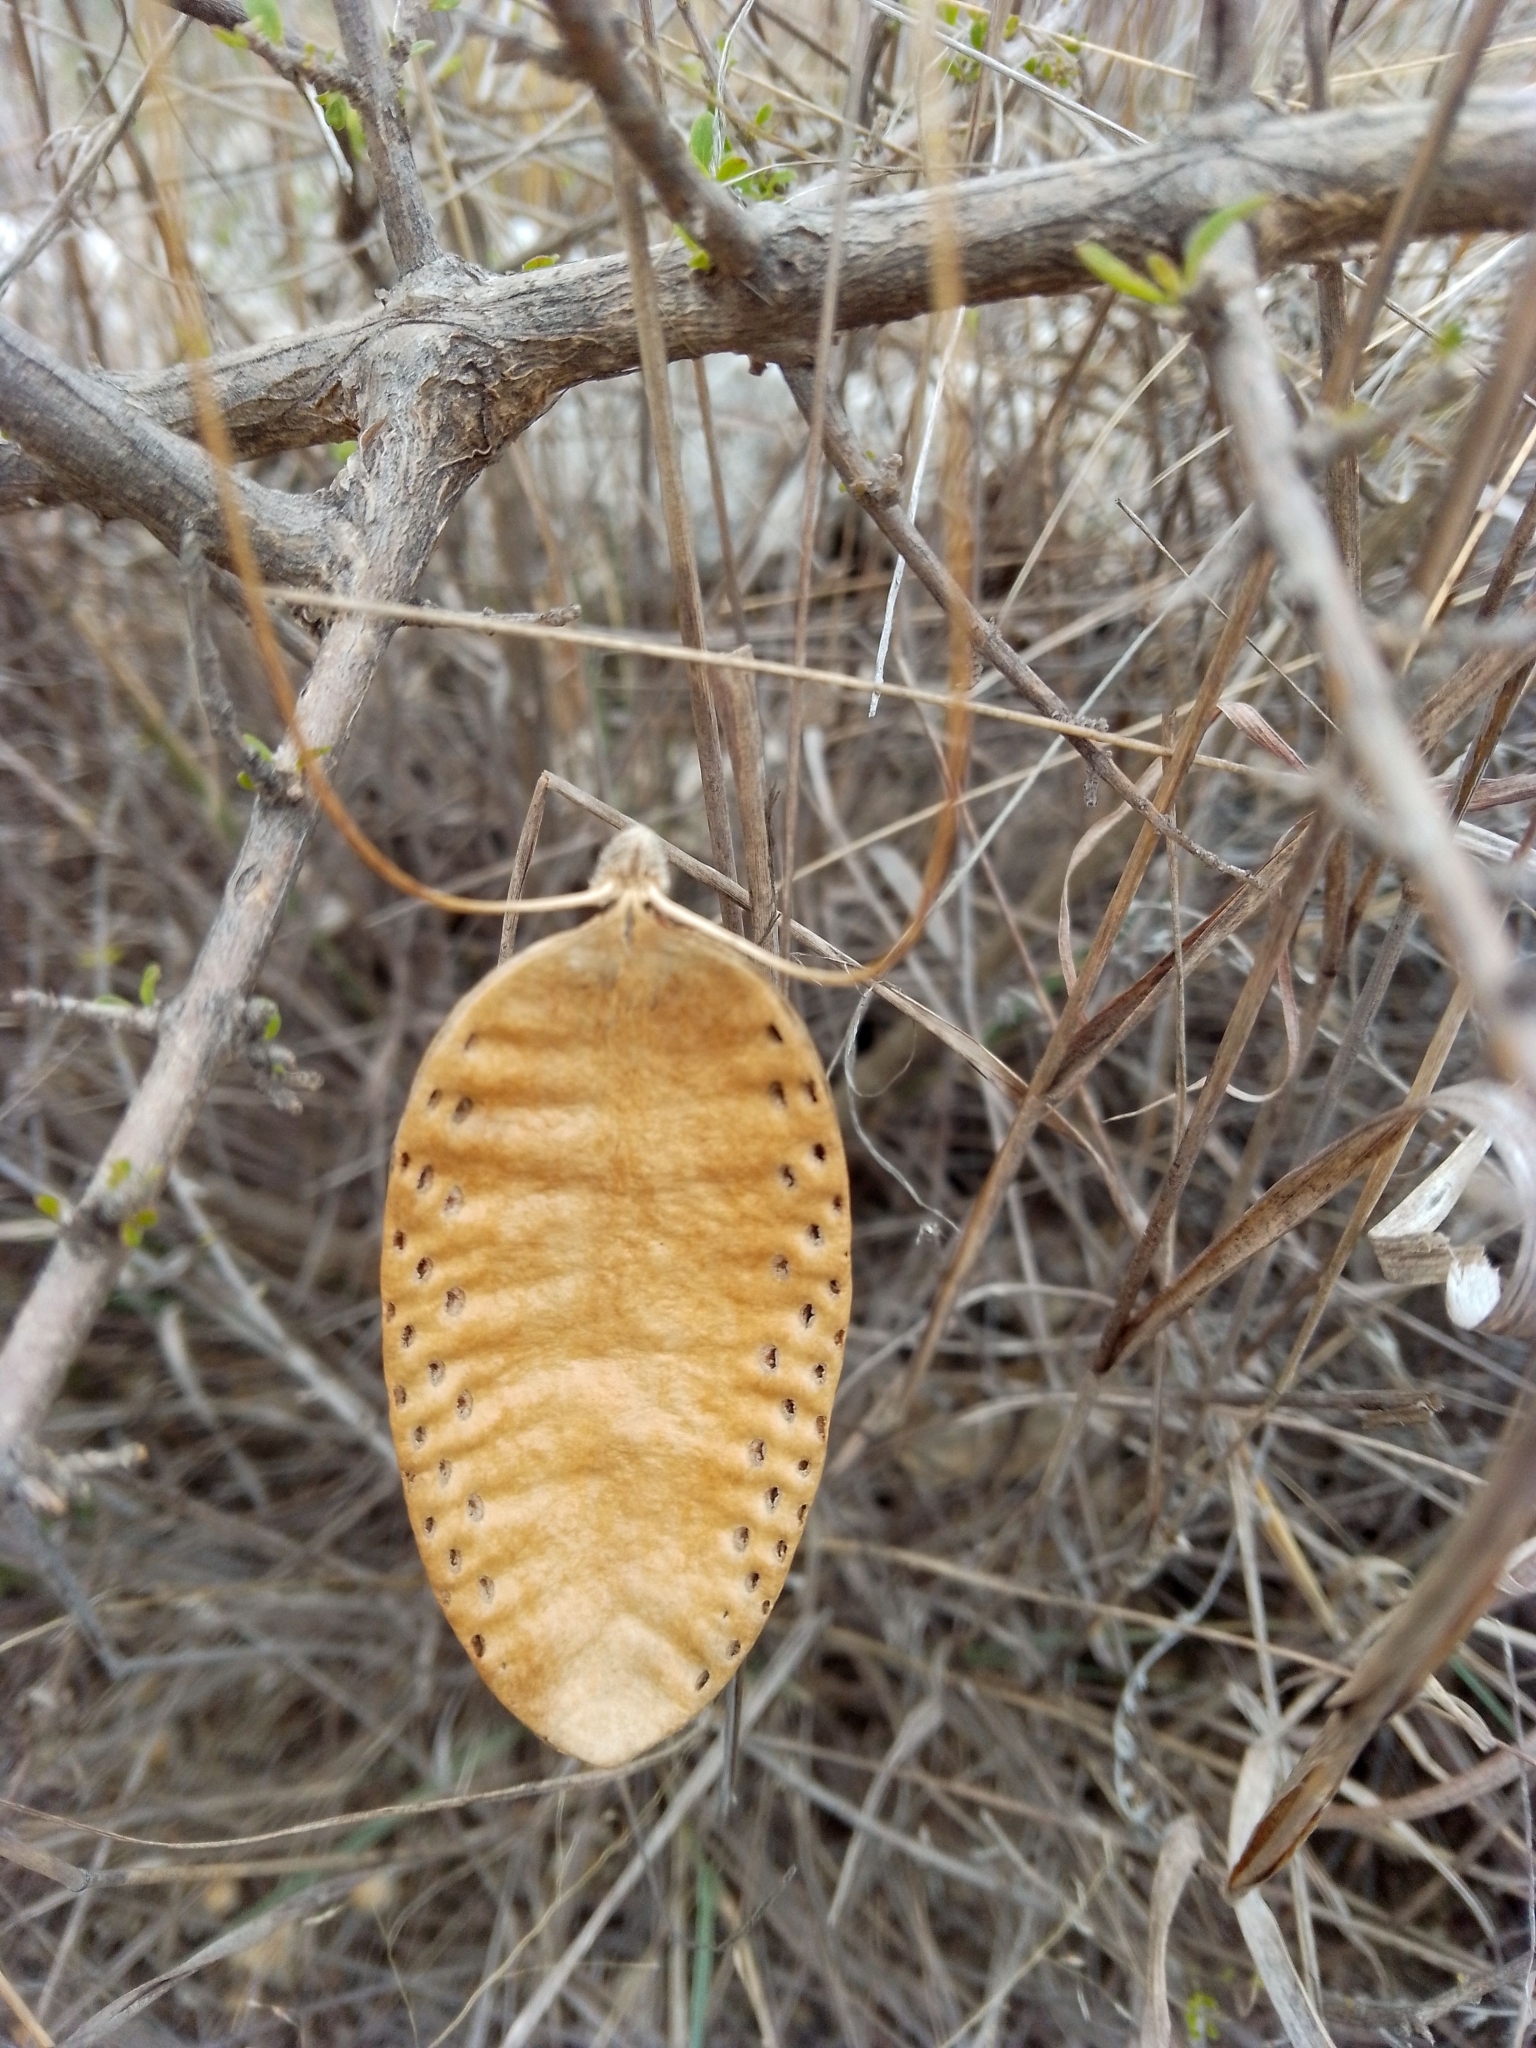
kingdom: Plantae
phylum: Tracheophyta
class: Magnoliopsida
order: Lamiales
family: Bignoniaceae
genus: Amphilophium
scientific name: Amphilophium carolinae
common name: Monkey's-comb
